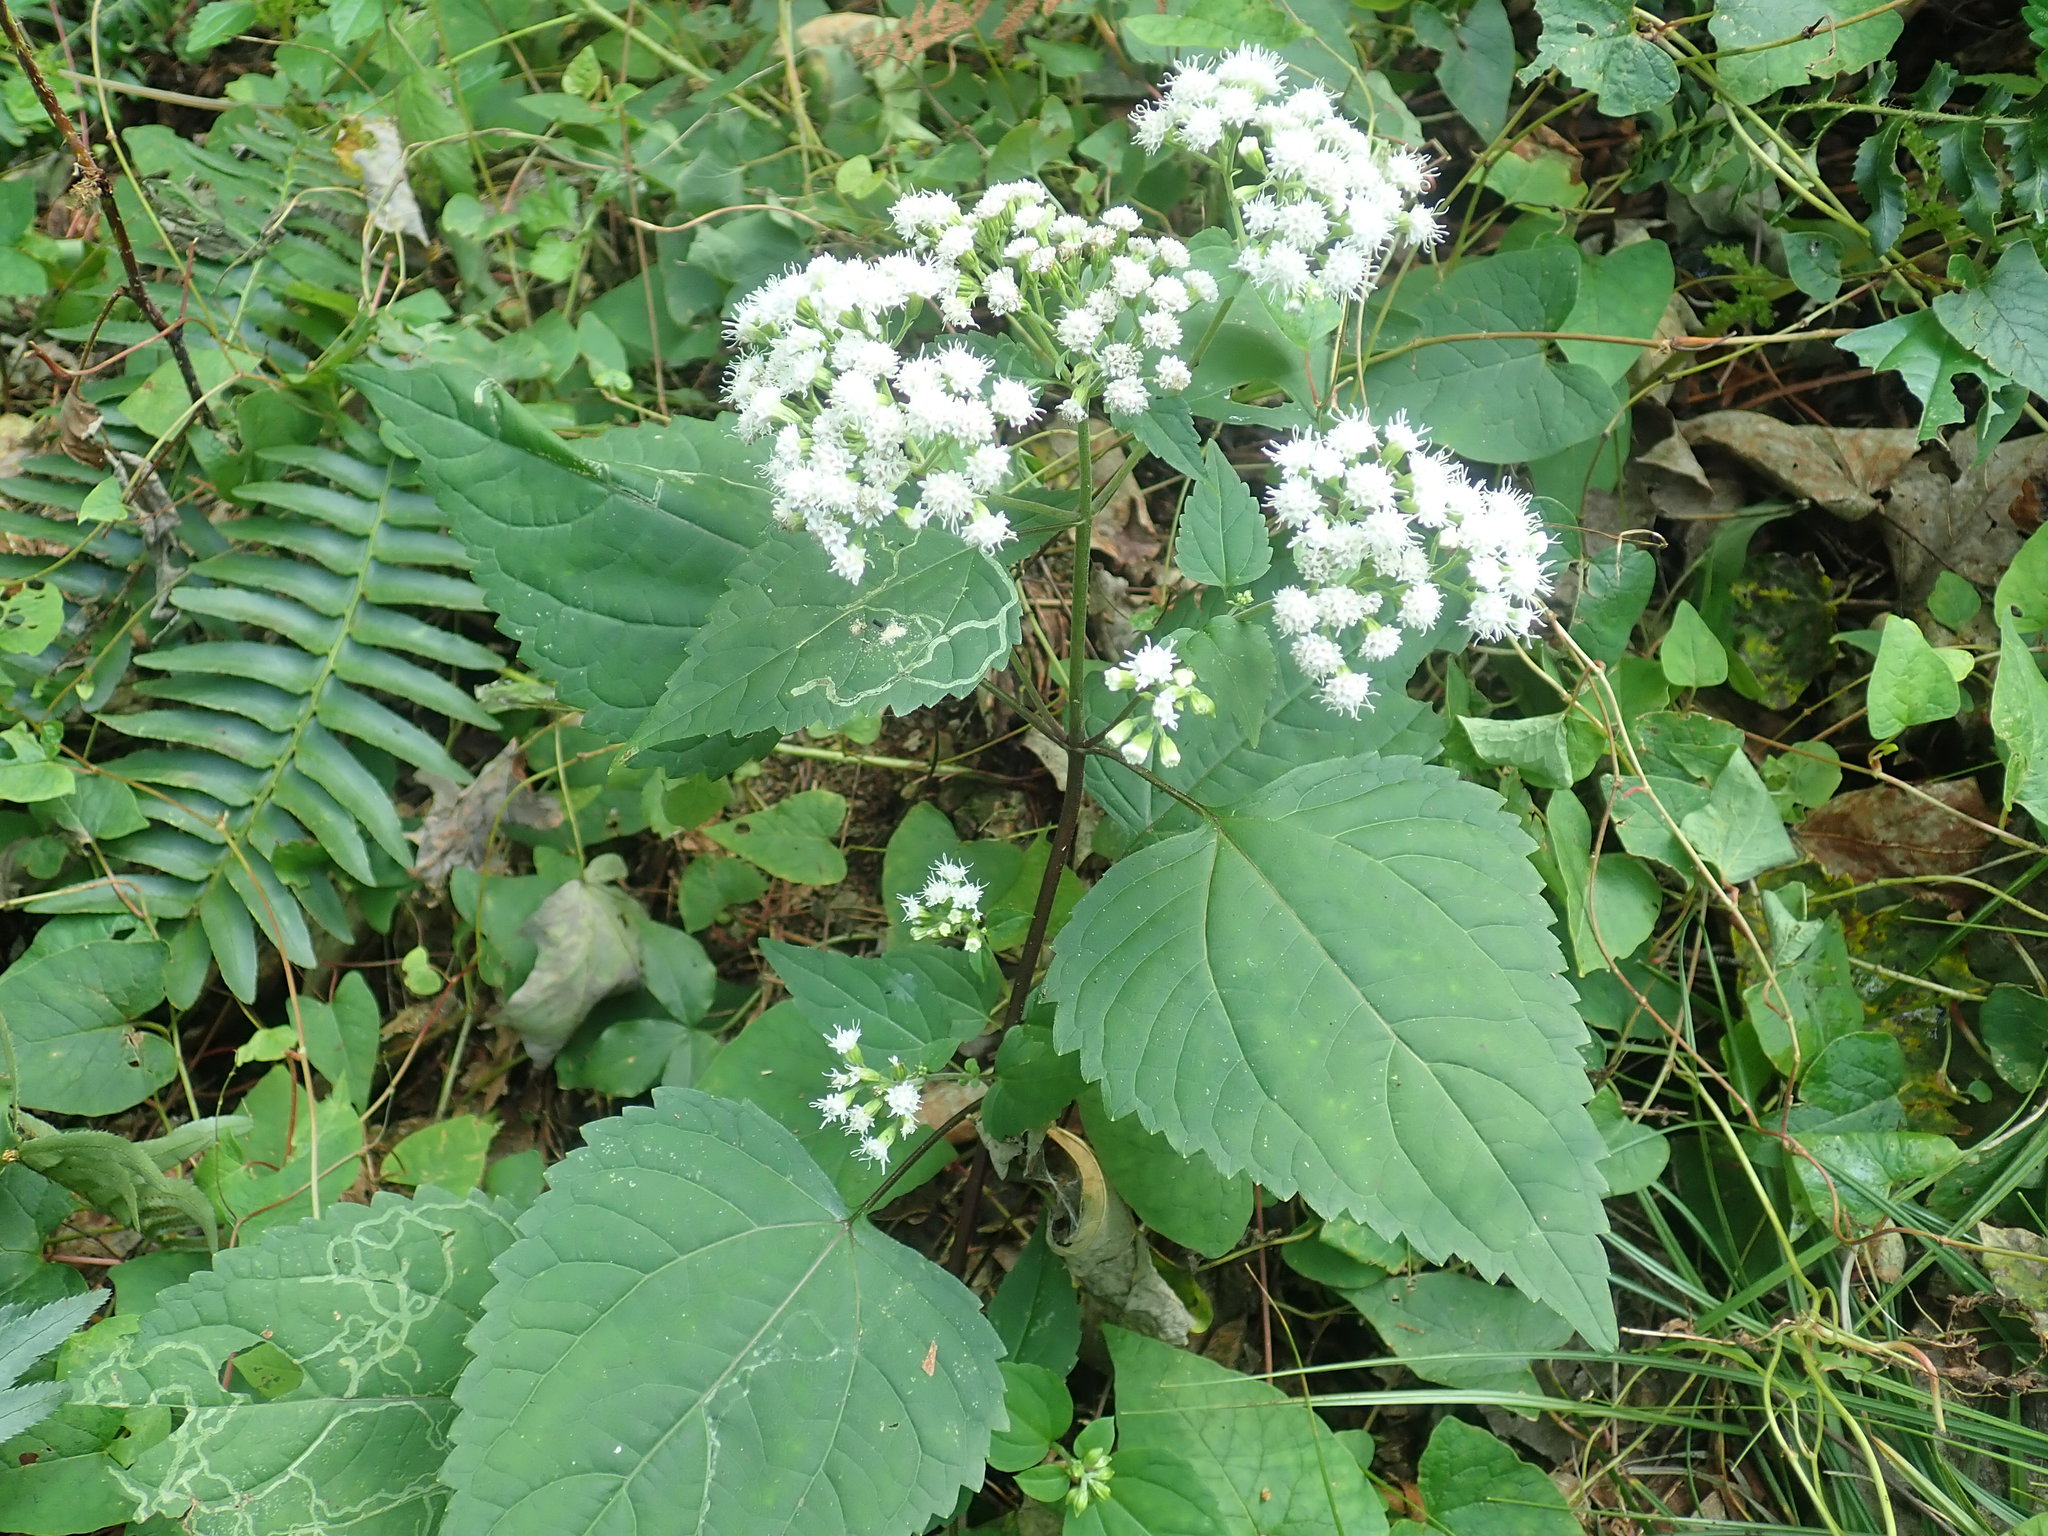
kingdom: Plantae
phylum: Tracheophyta
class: Magnoliopsida
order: Asterales
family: Asteraceae
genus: Ageratina
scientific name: Ageratina altissima
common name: White snakeroot
